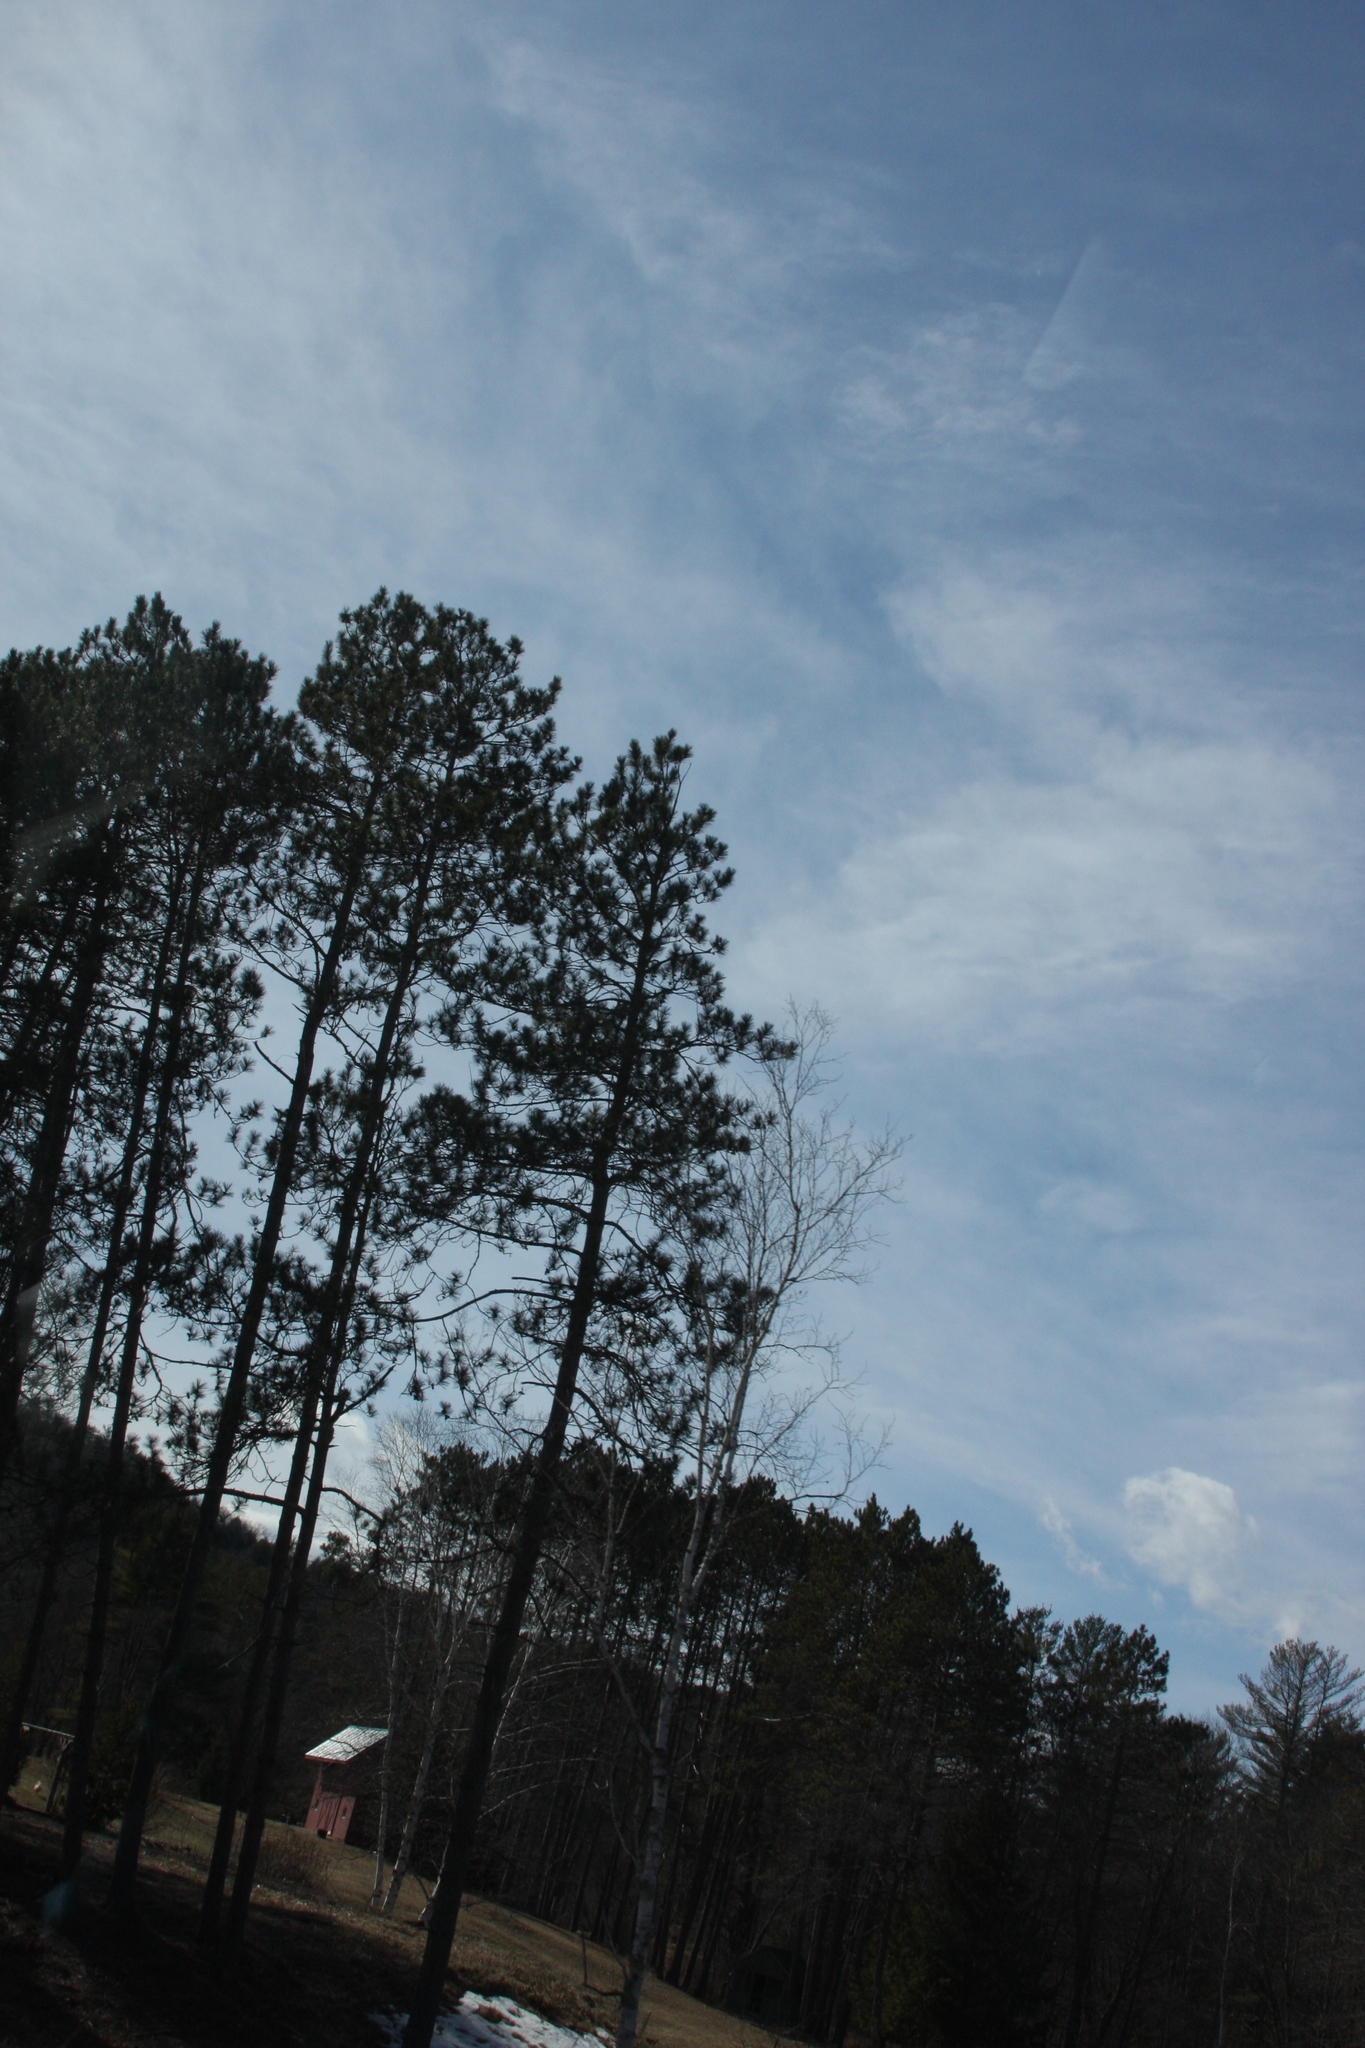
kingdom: Plantae
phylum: Tracheophyta
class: Pinopsida
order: Pinales
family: Pinaceae
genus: Pinus
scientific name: Pinus resinosa
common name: Norway pine
